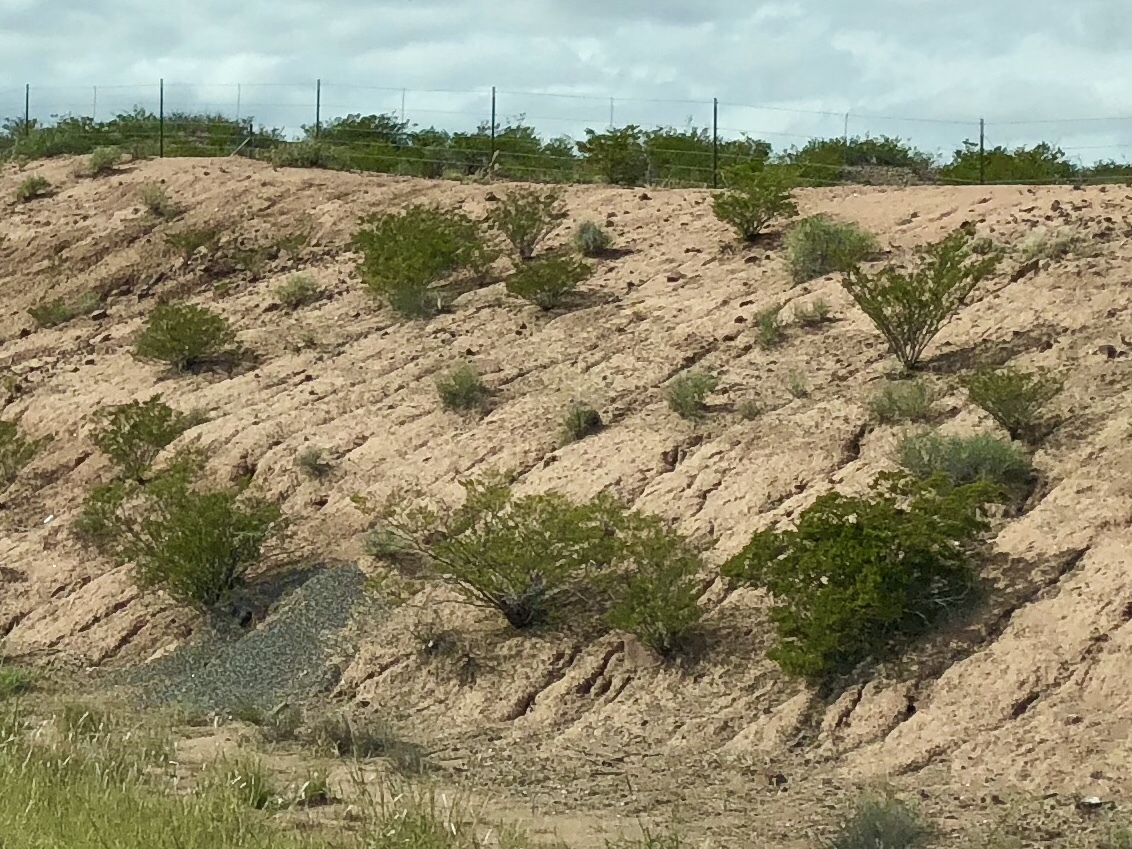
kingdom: Plantae
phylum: Tracheophyta
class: Magnoliopsida
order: Zygophyllales
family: Zygophyllaceae
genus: Larrea
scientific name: Larrea tridentata
